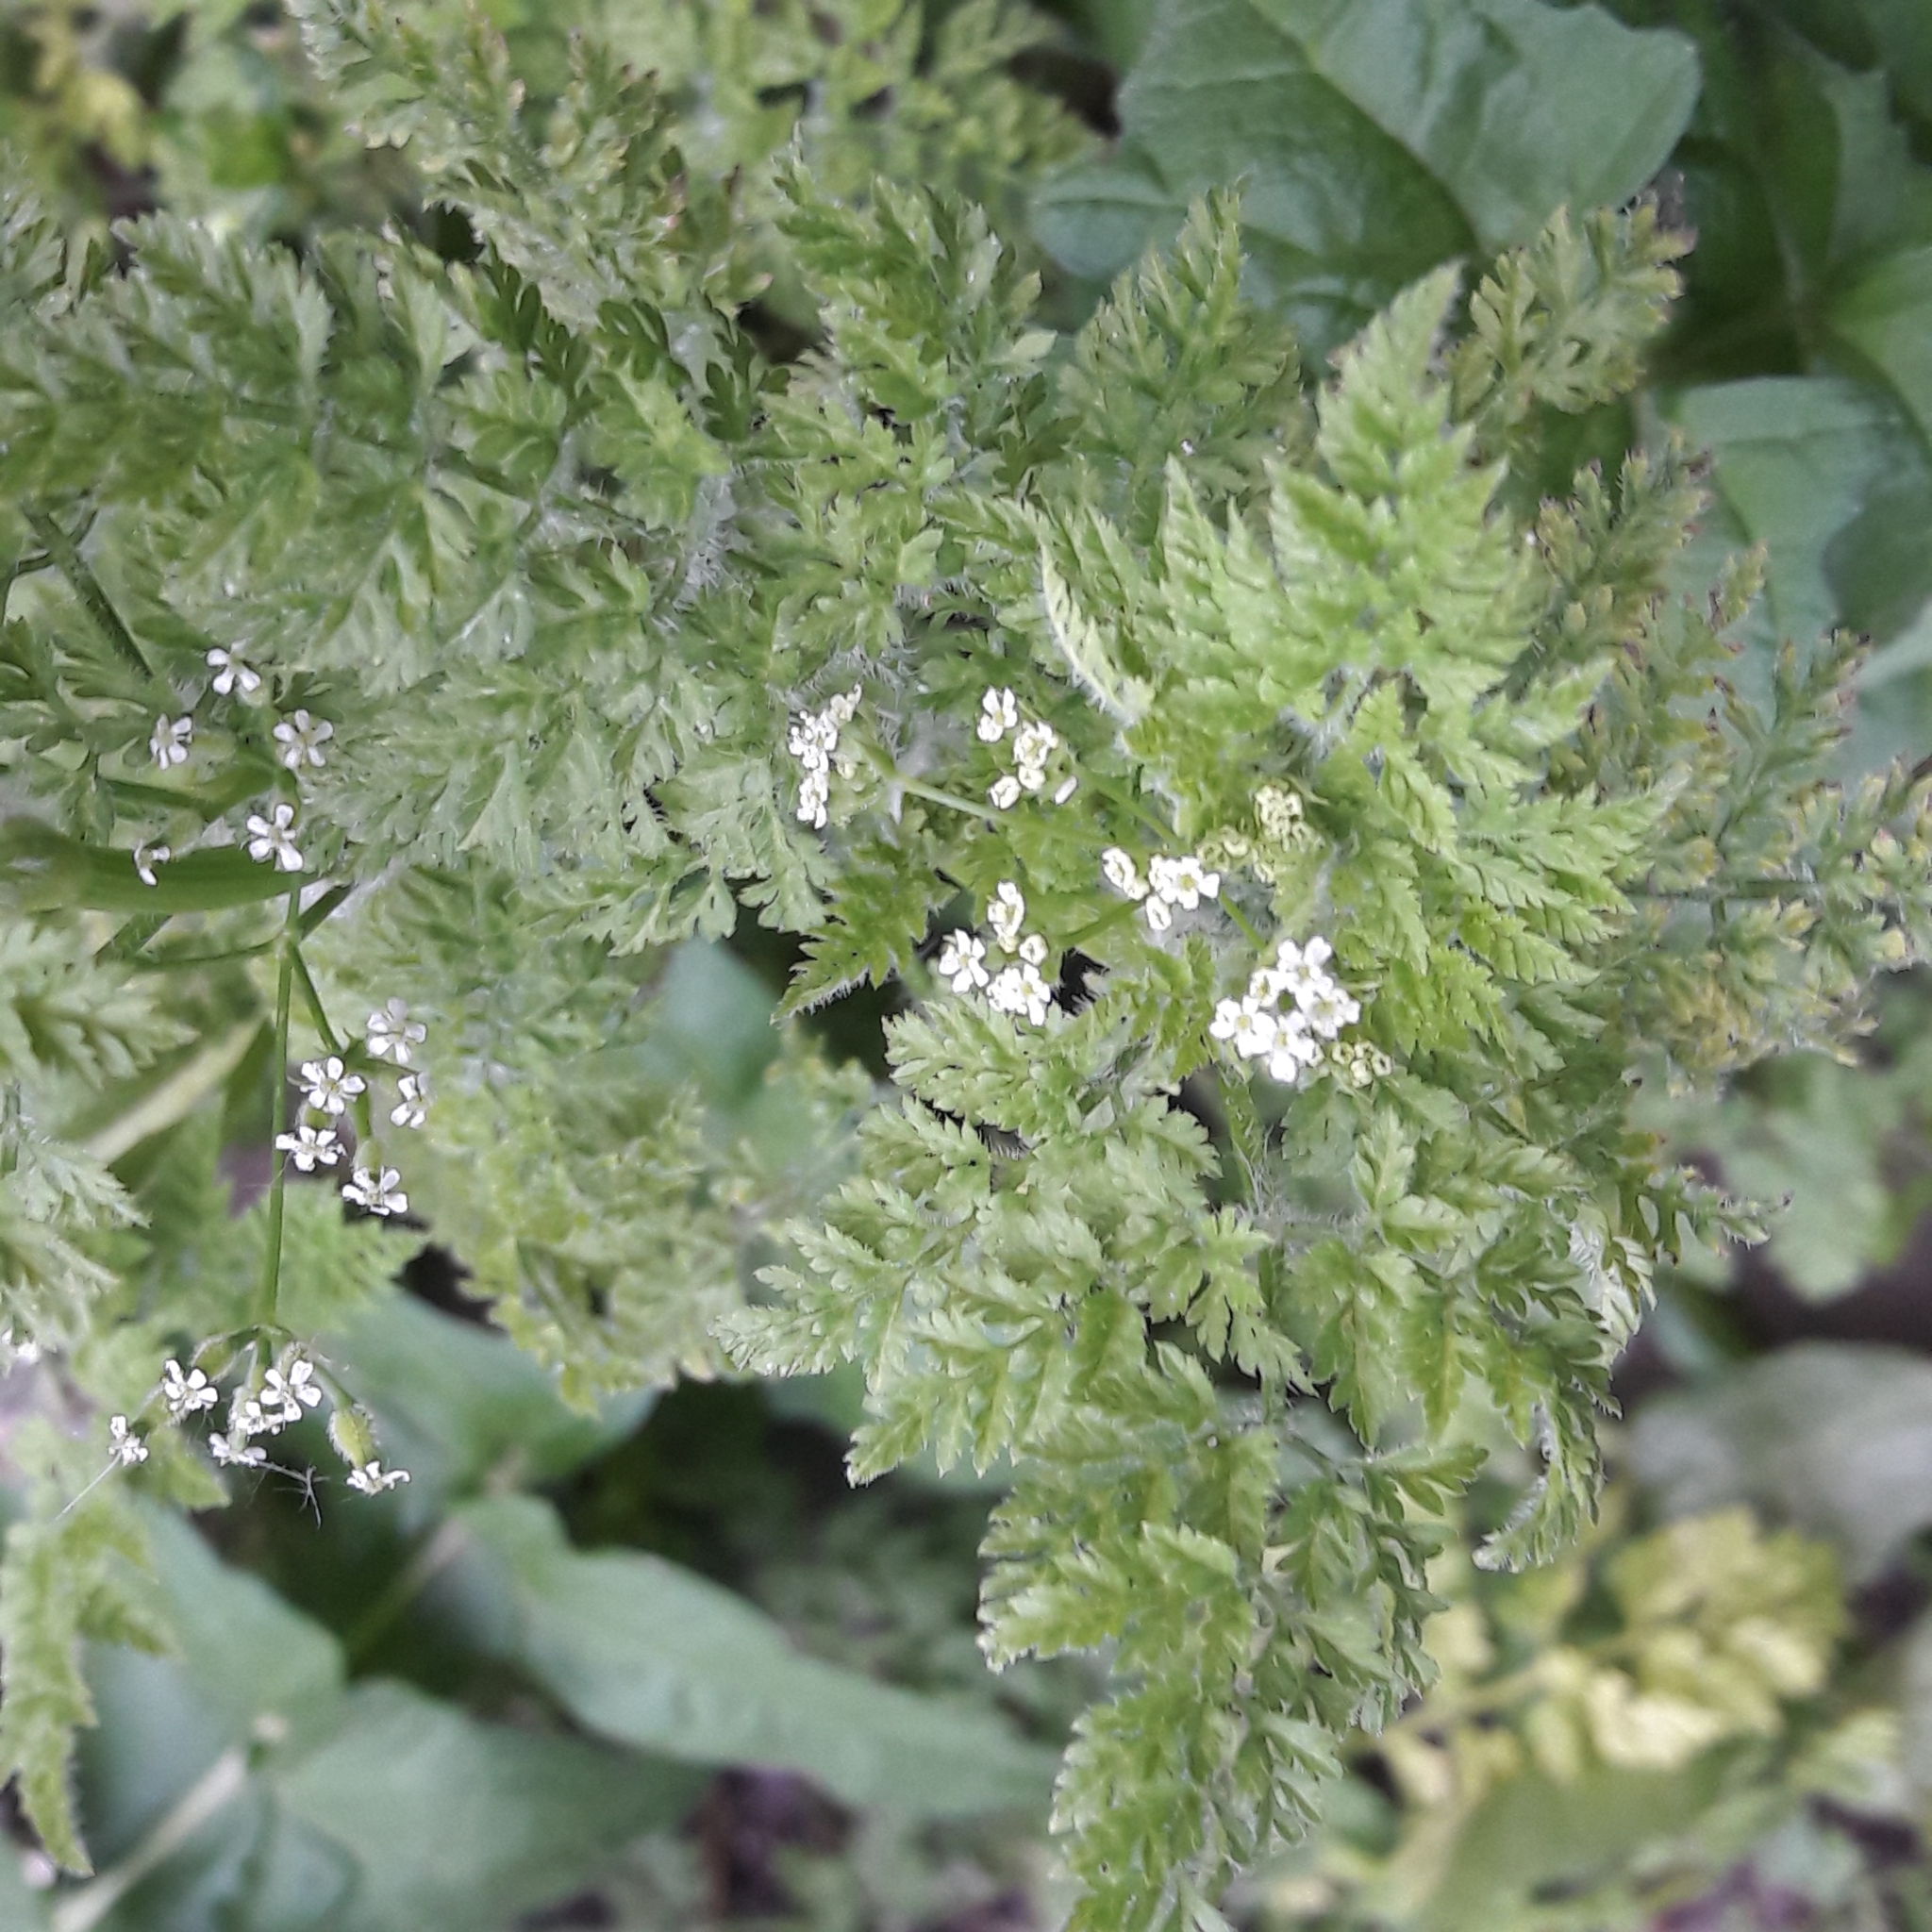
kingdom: Plantae
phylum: Tracheophyta
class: Magnoliopsida
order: Apiales
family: Apiaceae
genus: Anthriscus
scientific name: Anthriscus sylvestris
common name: Cow parsley
